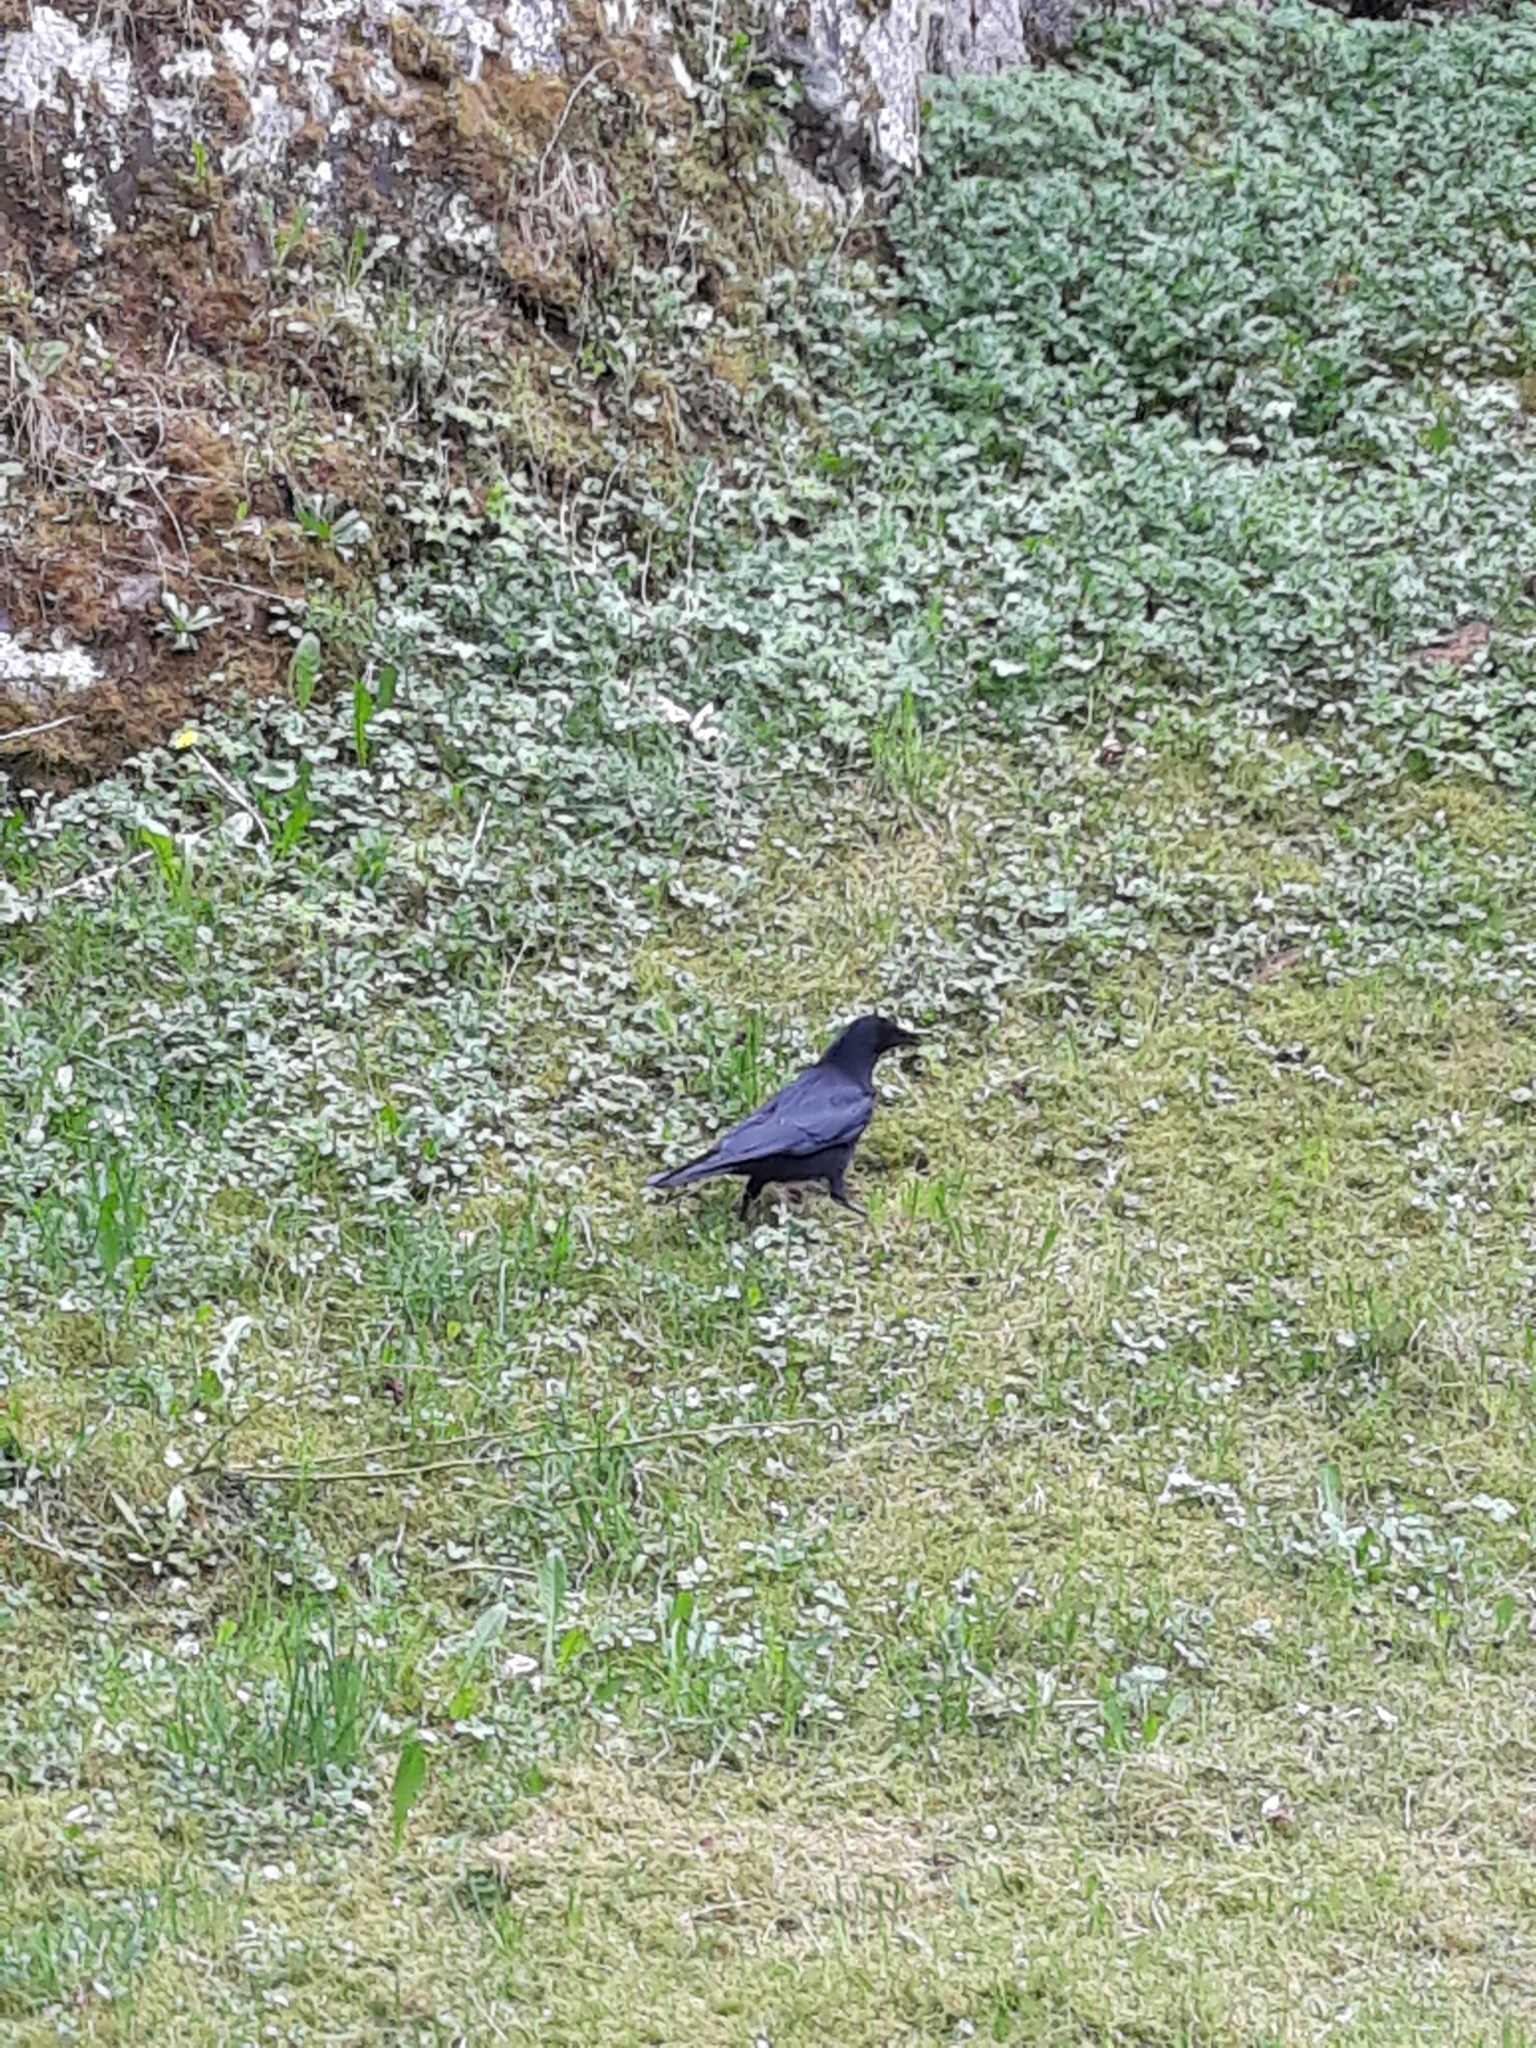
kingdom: Animalia
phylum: Chordata
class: Aves
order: Passeriformes
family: Corvidae
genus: Corvus
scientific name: Corvus corone
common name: Carrion crow
